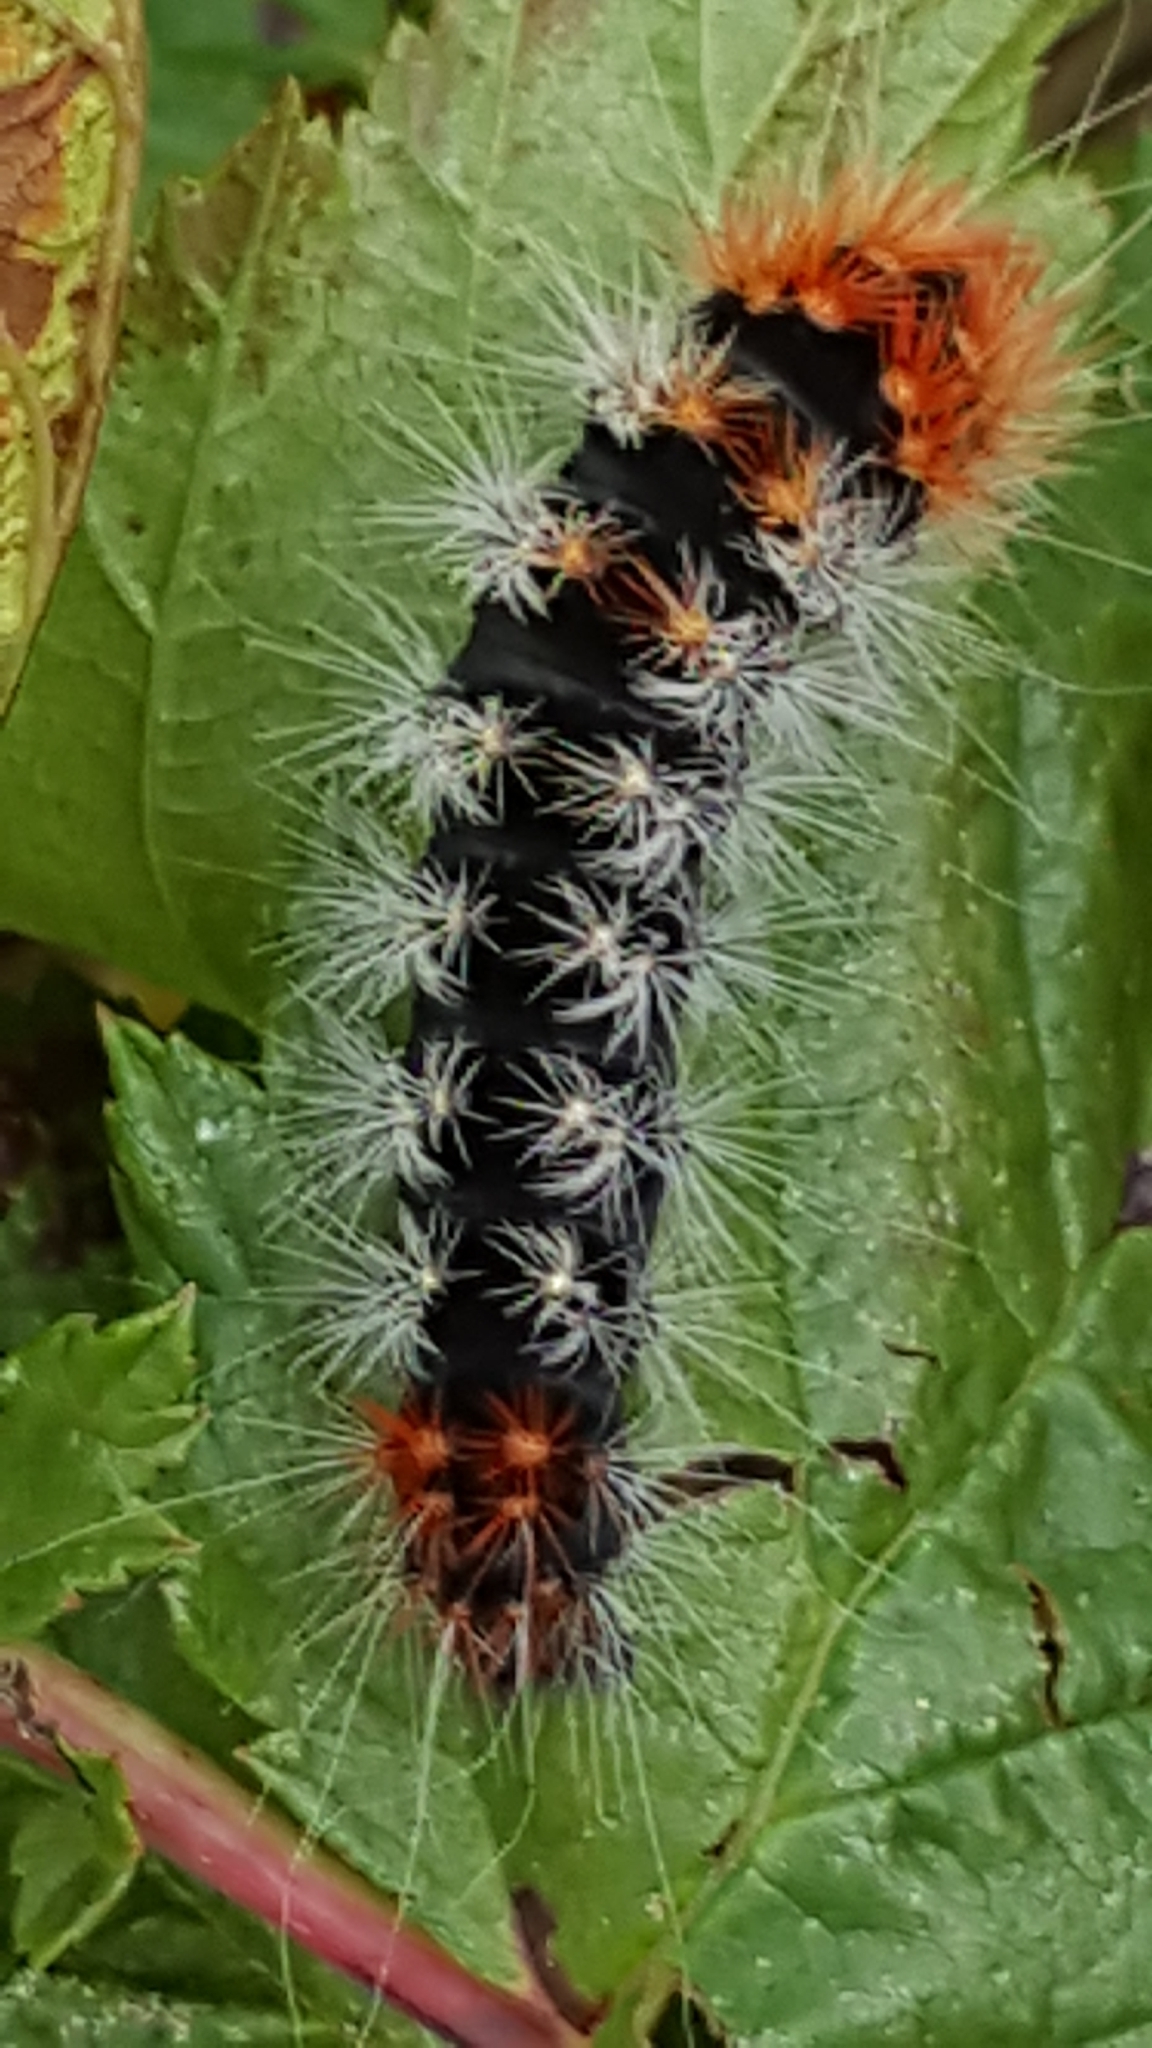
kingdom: Animalia
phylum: Arthropoda
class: Insecta
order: Lepidoptera
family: Noctuidae
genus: Acronicta
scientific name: Acronicta impressa
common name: Impressed dagger
